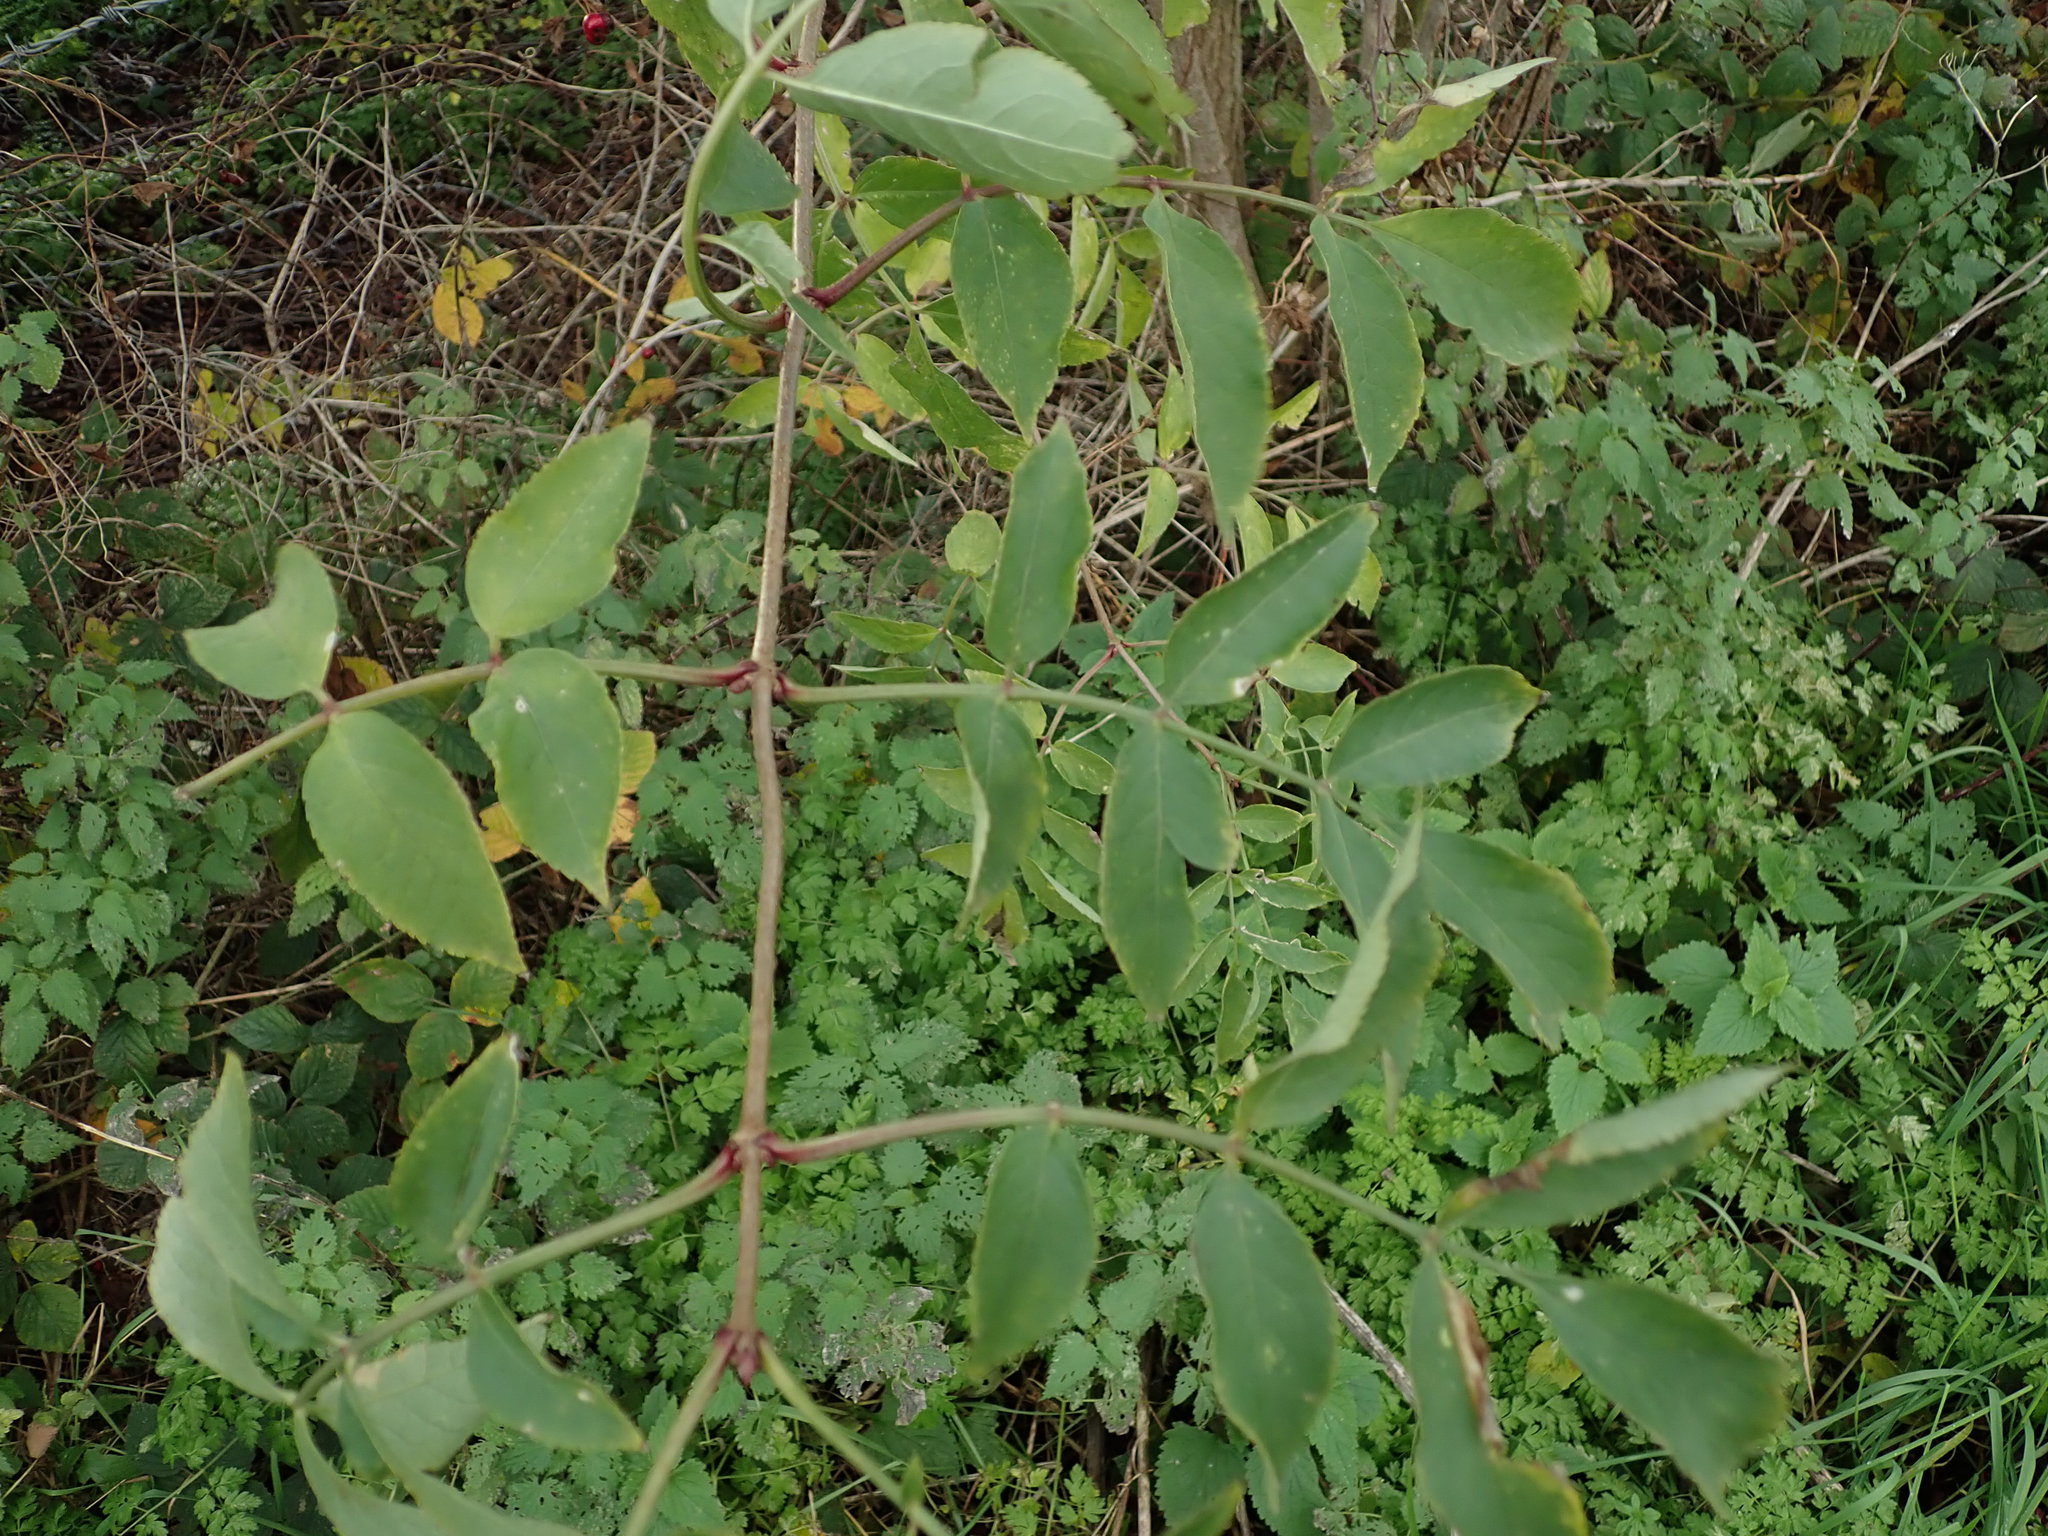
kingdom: Plantae
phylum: Tracheophyta
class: Magnoliopsida
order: Dipsacales
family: Viburnaceae
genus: Sambucus
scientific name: Sambucus nigra
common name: Elder
